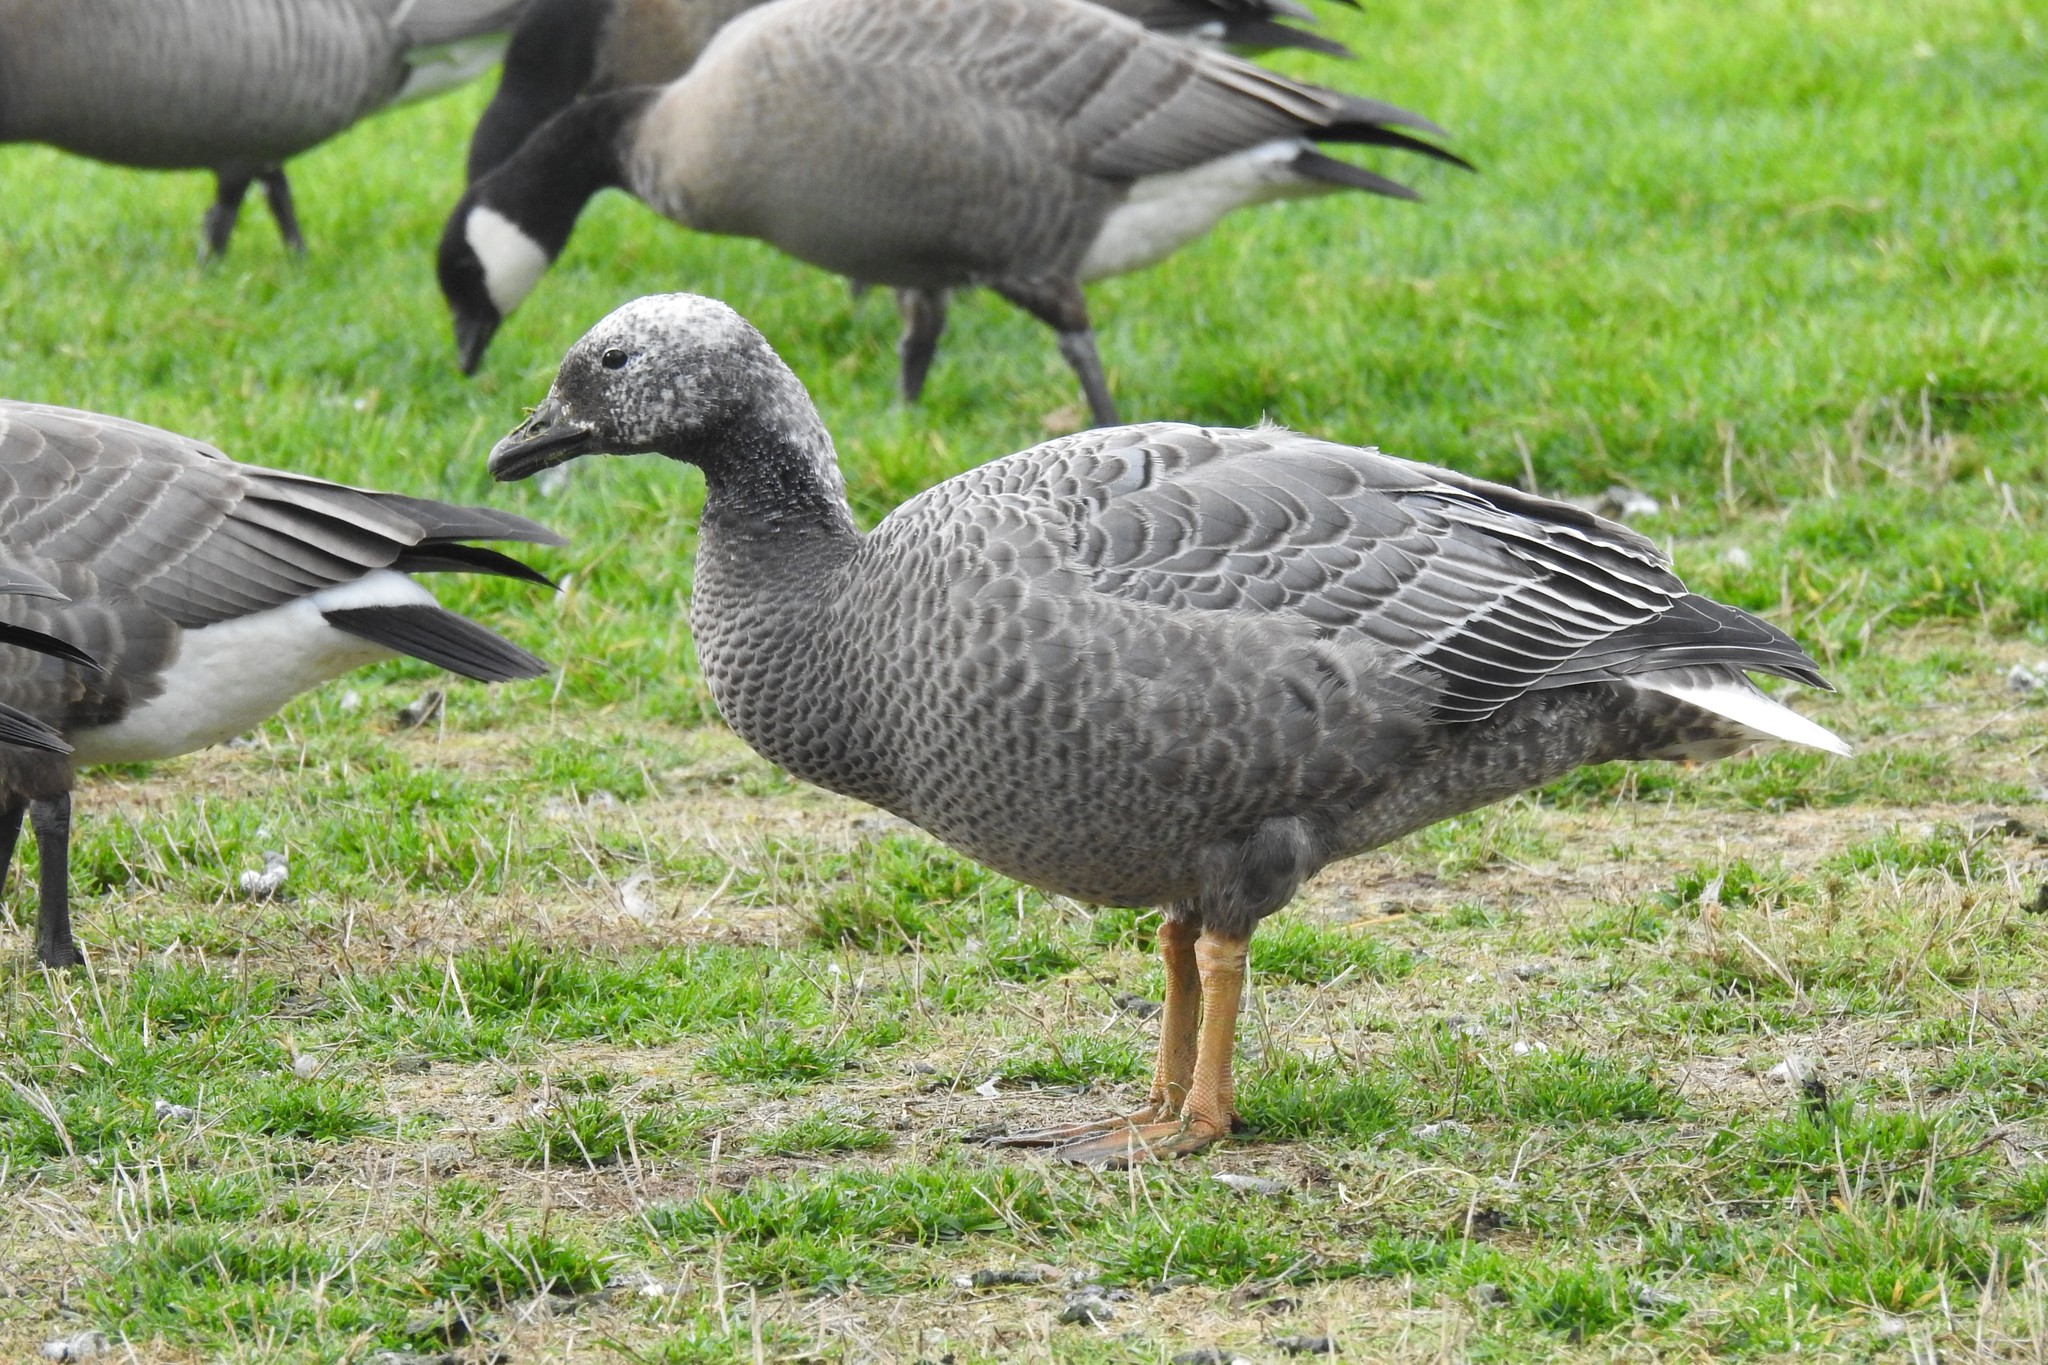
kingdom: Animalia
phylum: Chordata
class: Aves
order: Anseriformes
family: Anatidae
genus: Anser
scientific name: Anser canagicus
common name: Emperor goose
